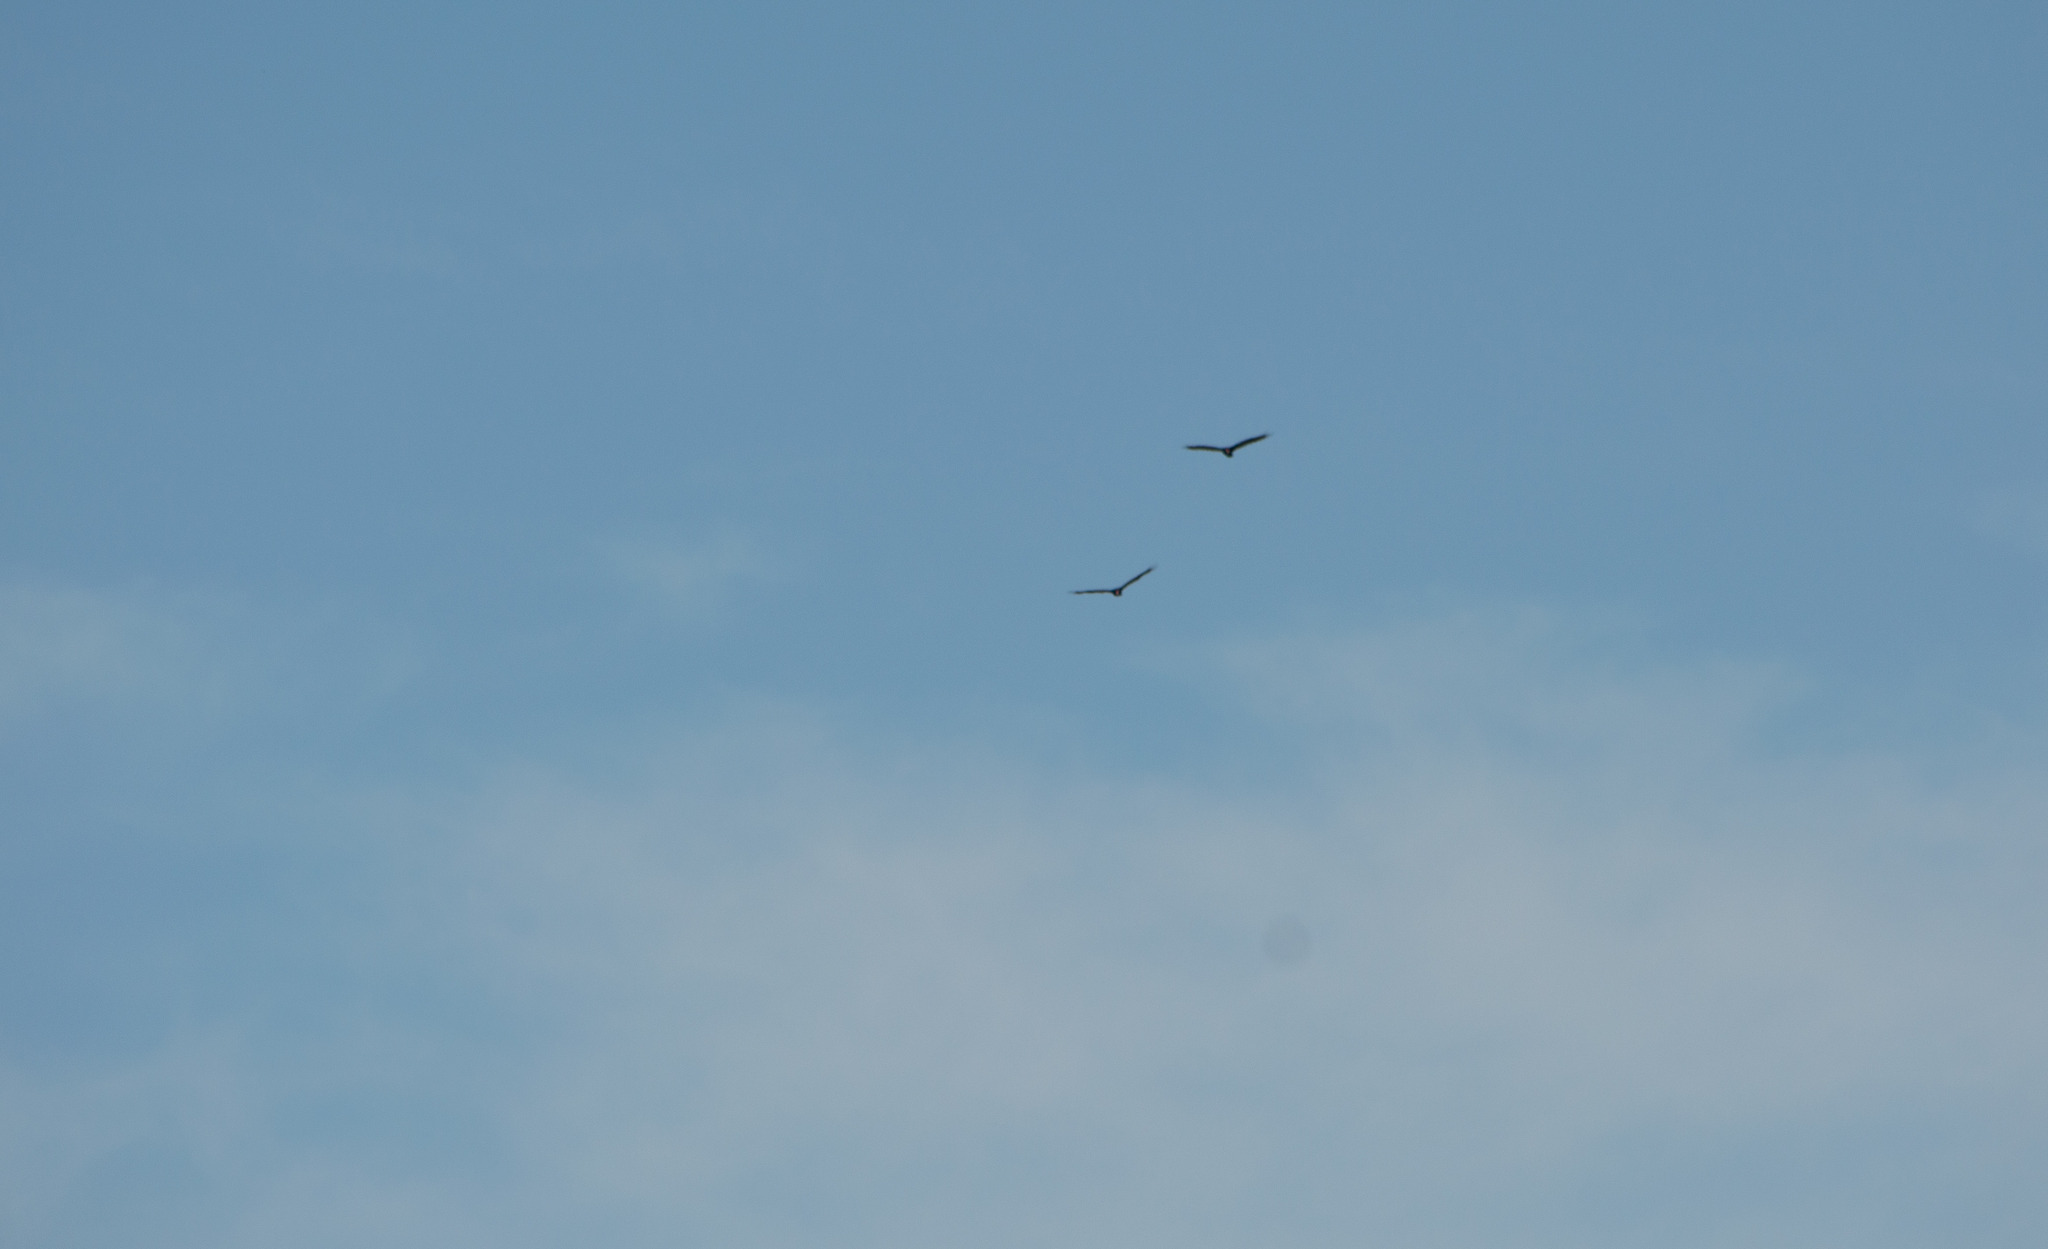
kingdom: Animalia
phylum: Chordata
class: Aves
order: Accipitriformes
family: Cathartidae
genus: Cathartes
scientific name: Cathartes aura
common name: Turkey vulture
